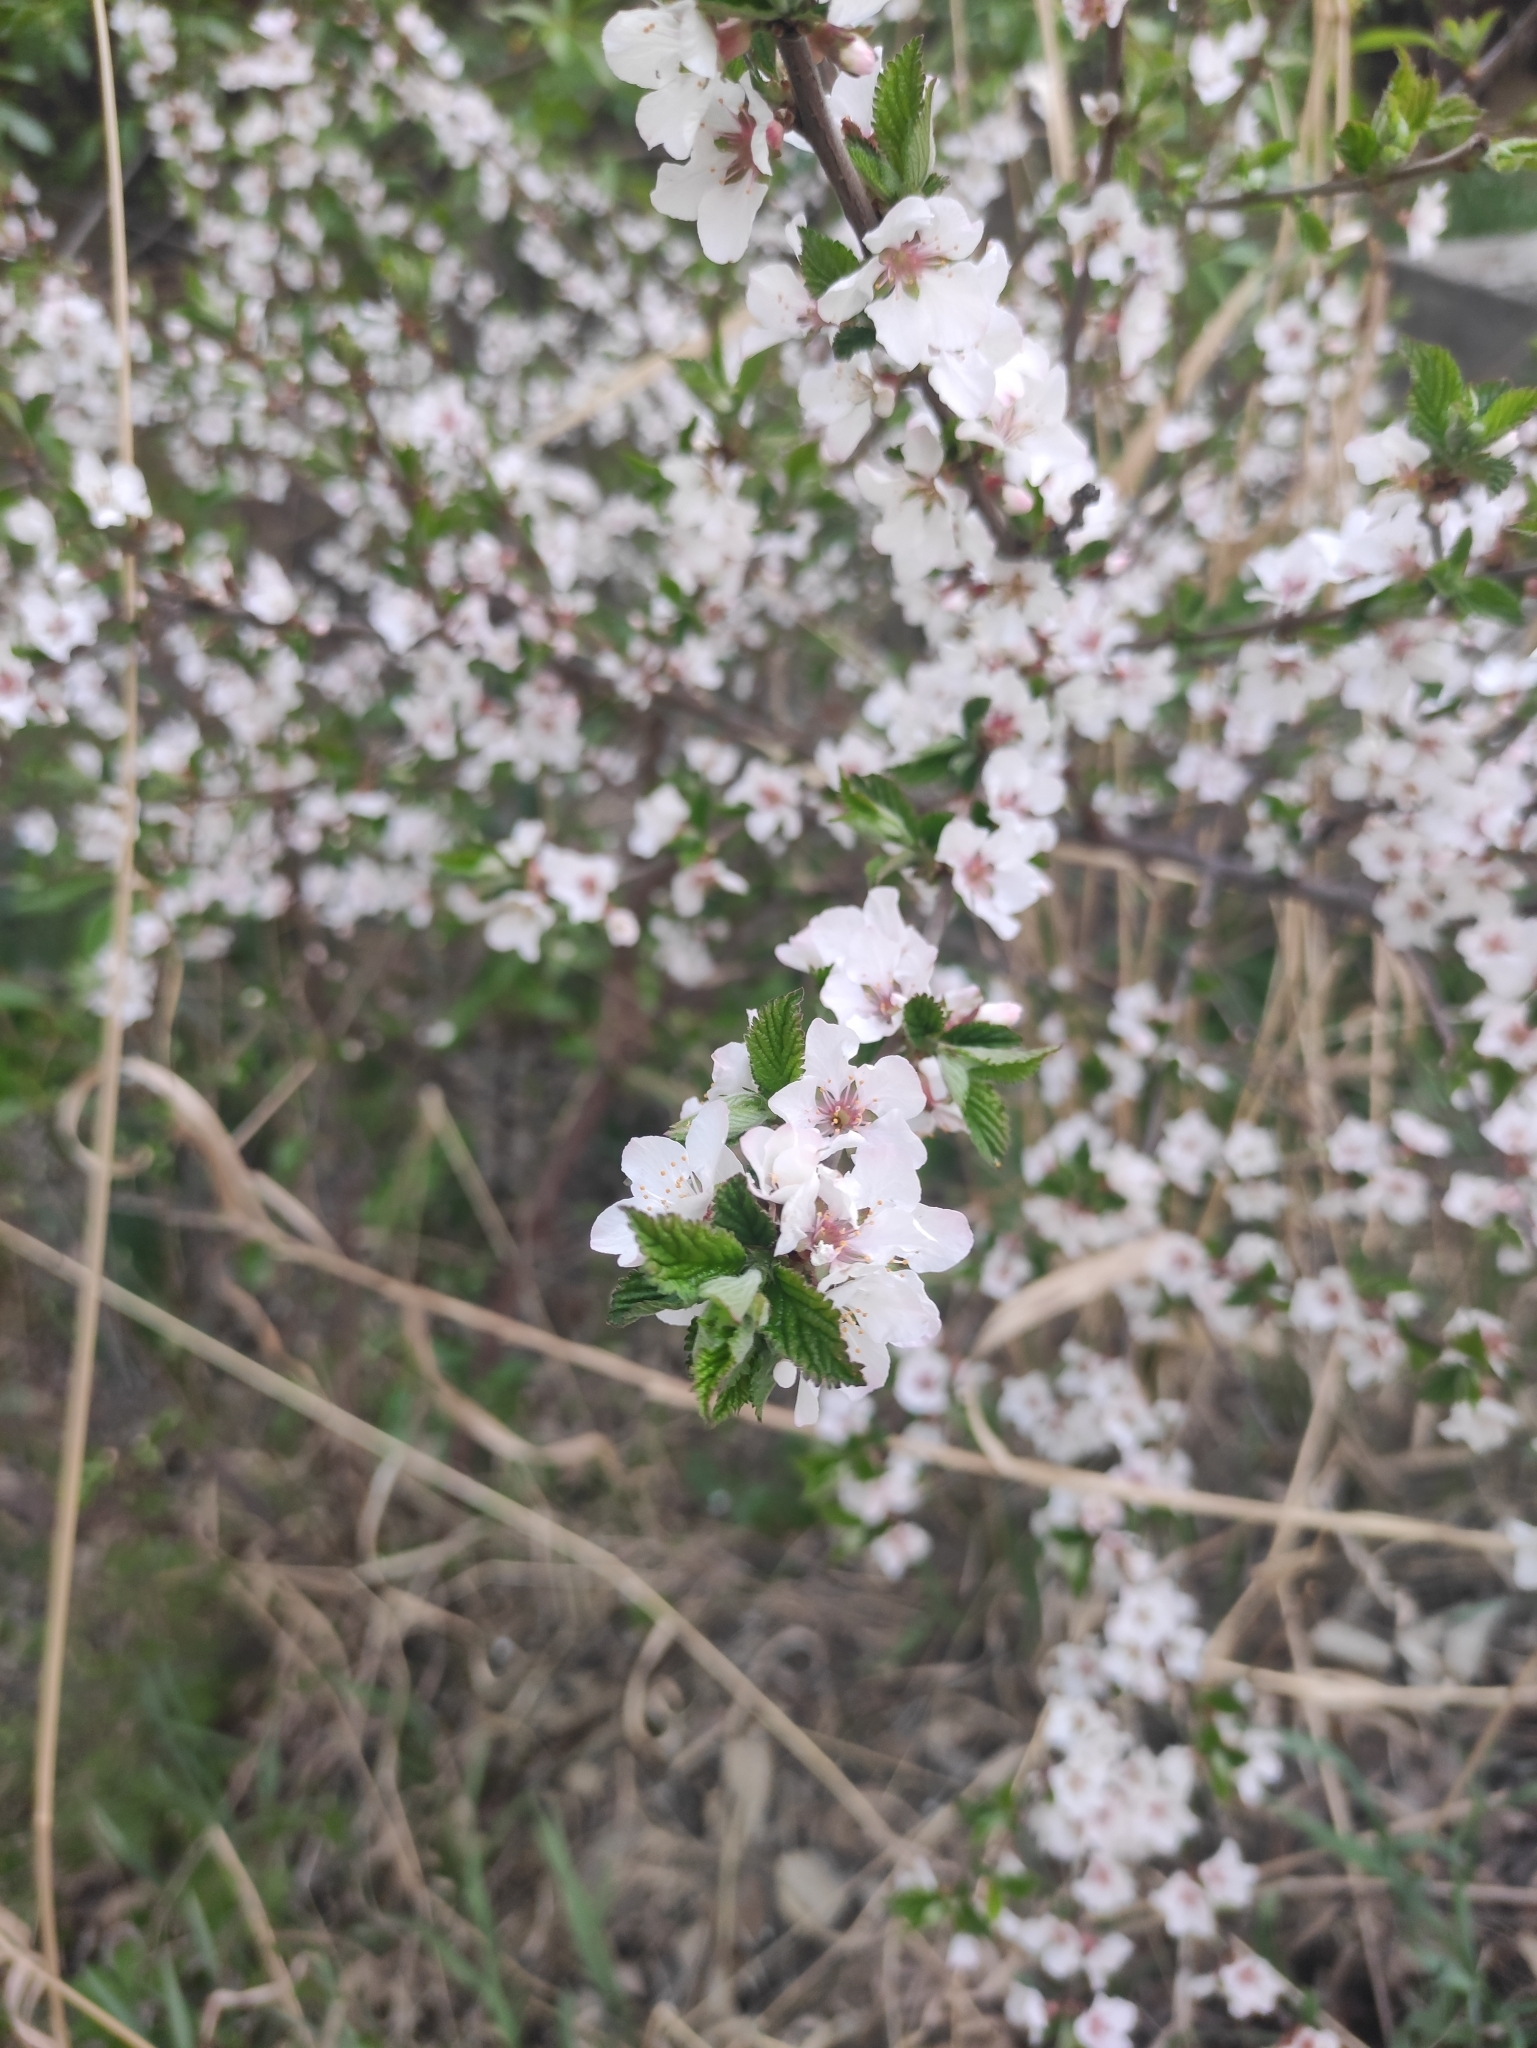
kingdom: Plantae
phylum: Tracheophyta
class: Magnoliopsida
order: Rosales
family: Rosaceae
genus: Prunus
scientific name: Prunus tomentosa
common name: Nanking cherry
